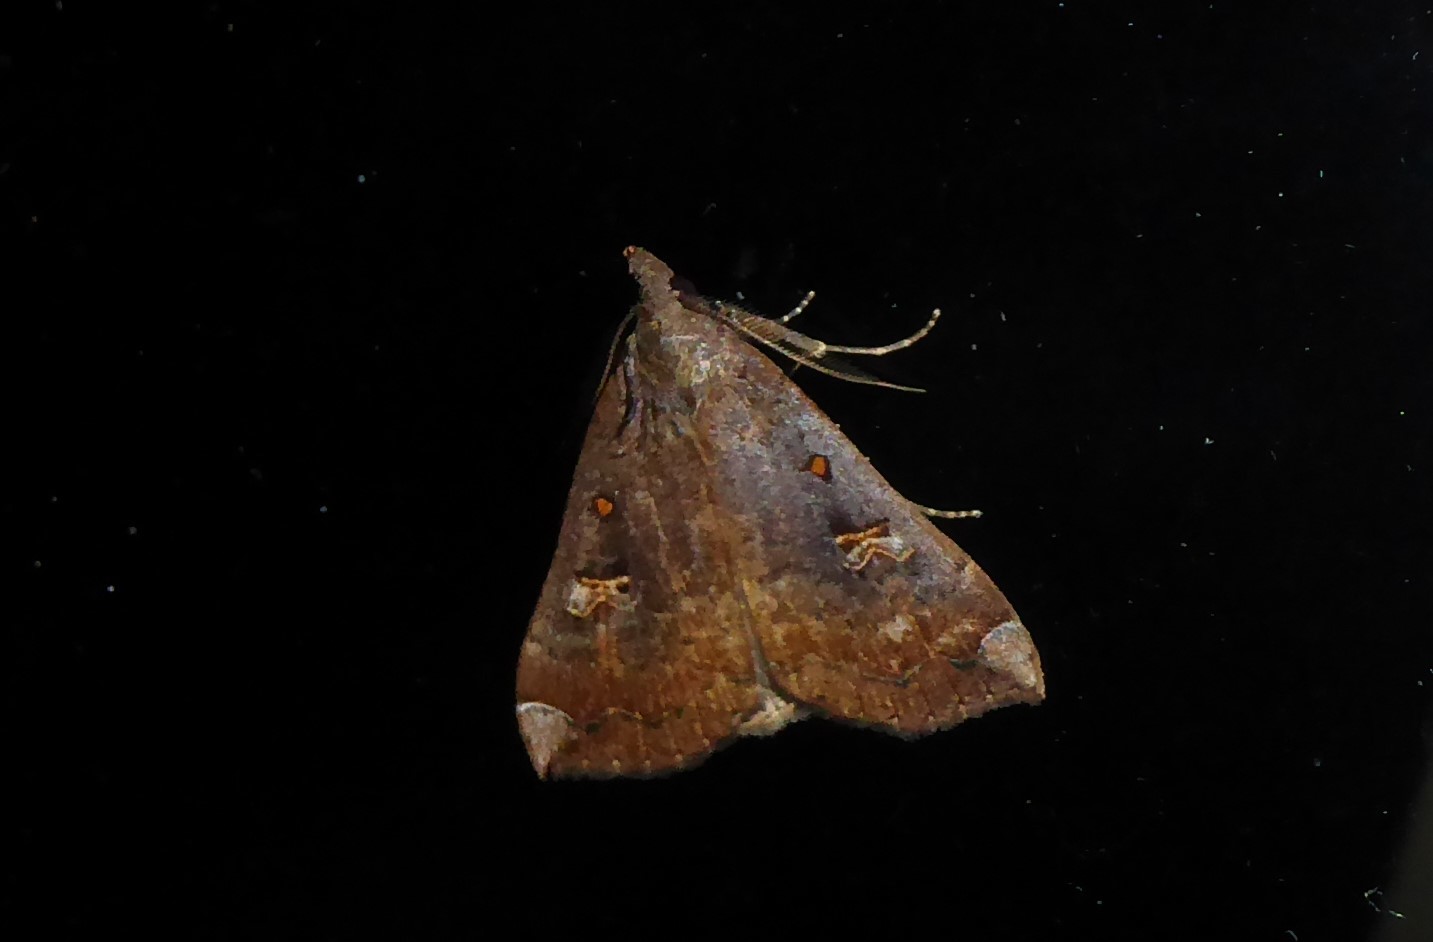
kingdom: Animalia
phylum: Arthropoda
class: Insecta
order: Lepidoptera
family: Erebidae
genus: Rhapsa
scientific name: Rhapsa scotosialis
